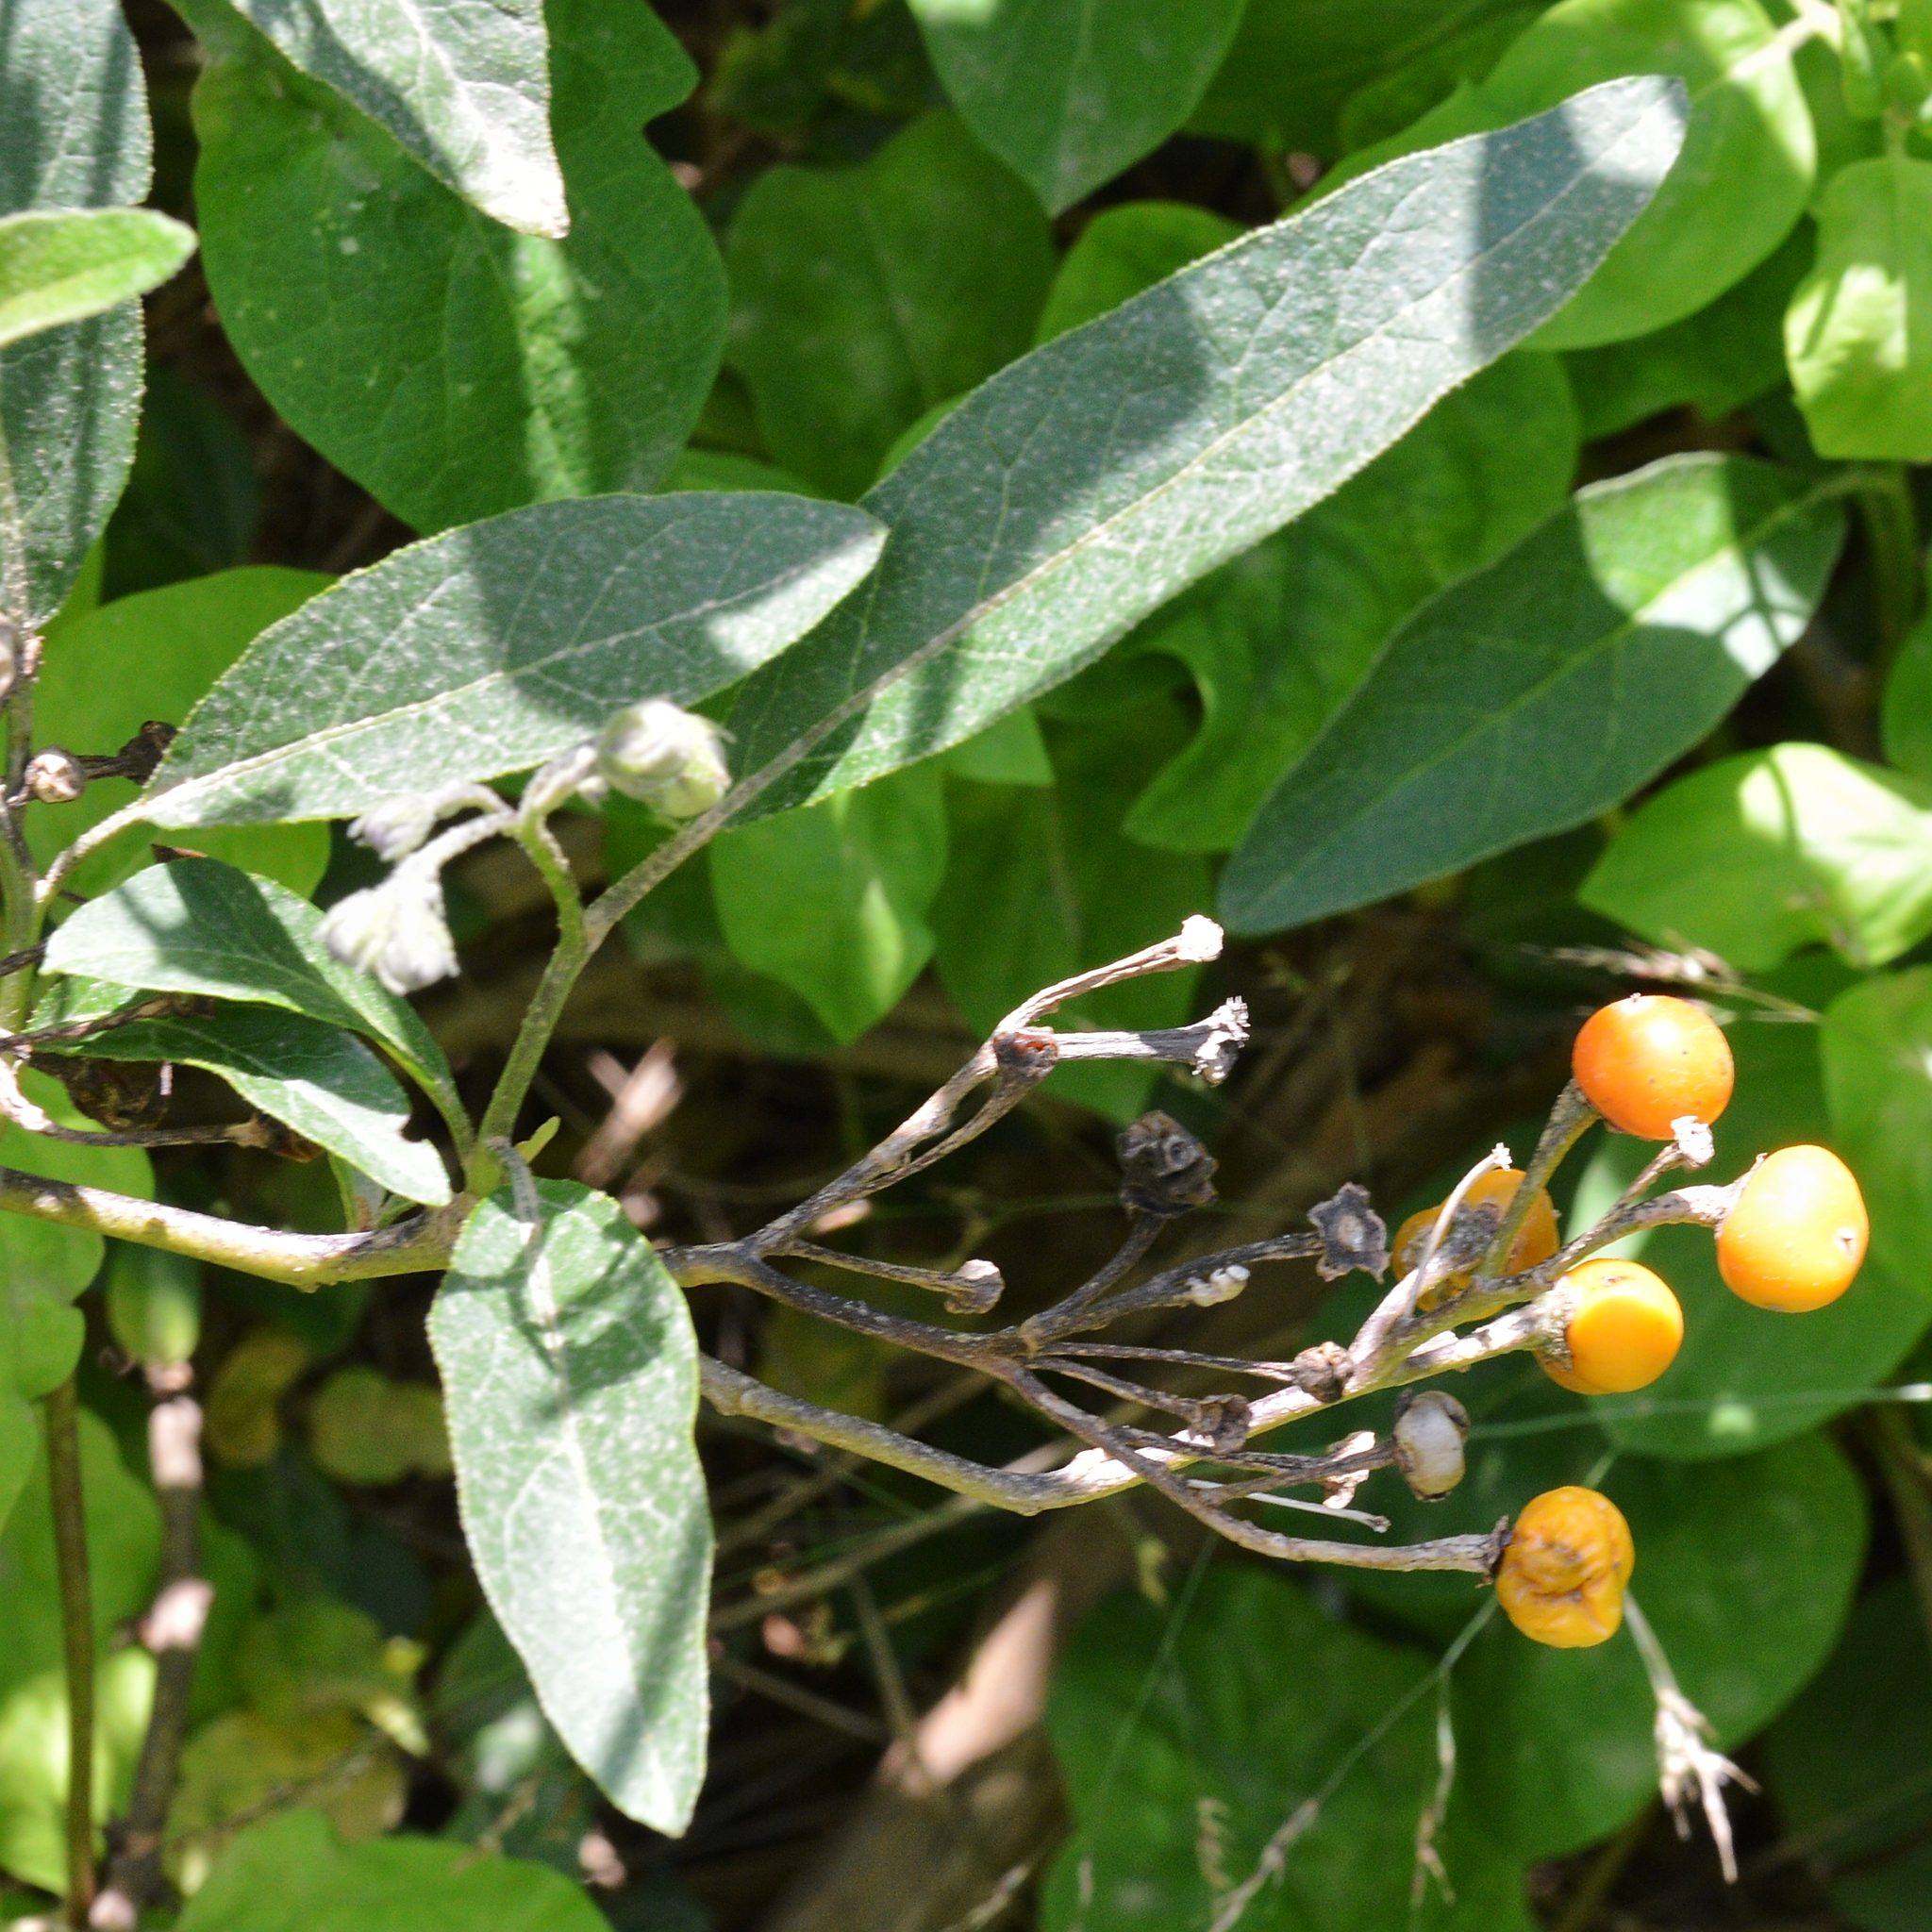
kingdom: Plantae
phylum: Tracheophyta
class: Magnoliopsida
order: Solanales
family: Solanaceae
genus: Solanum
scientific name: Solanum bonariense
